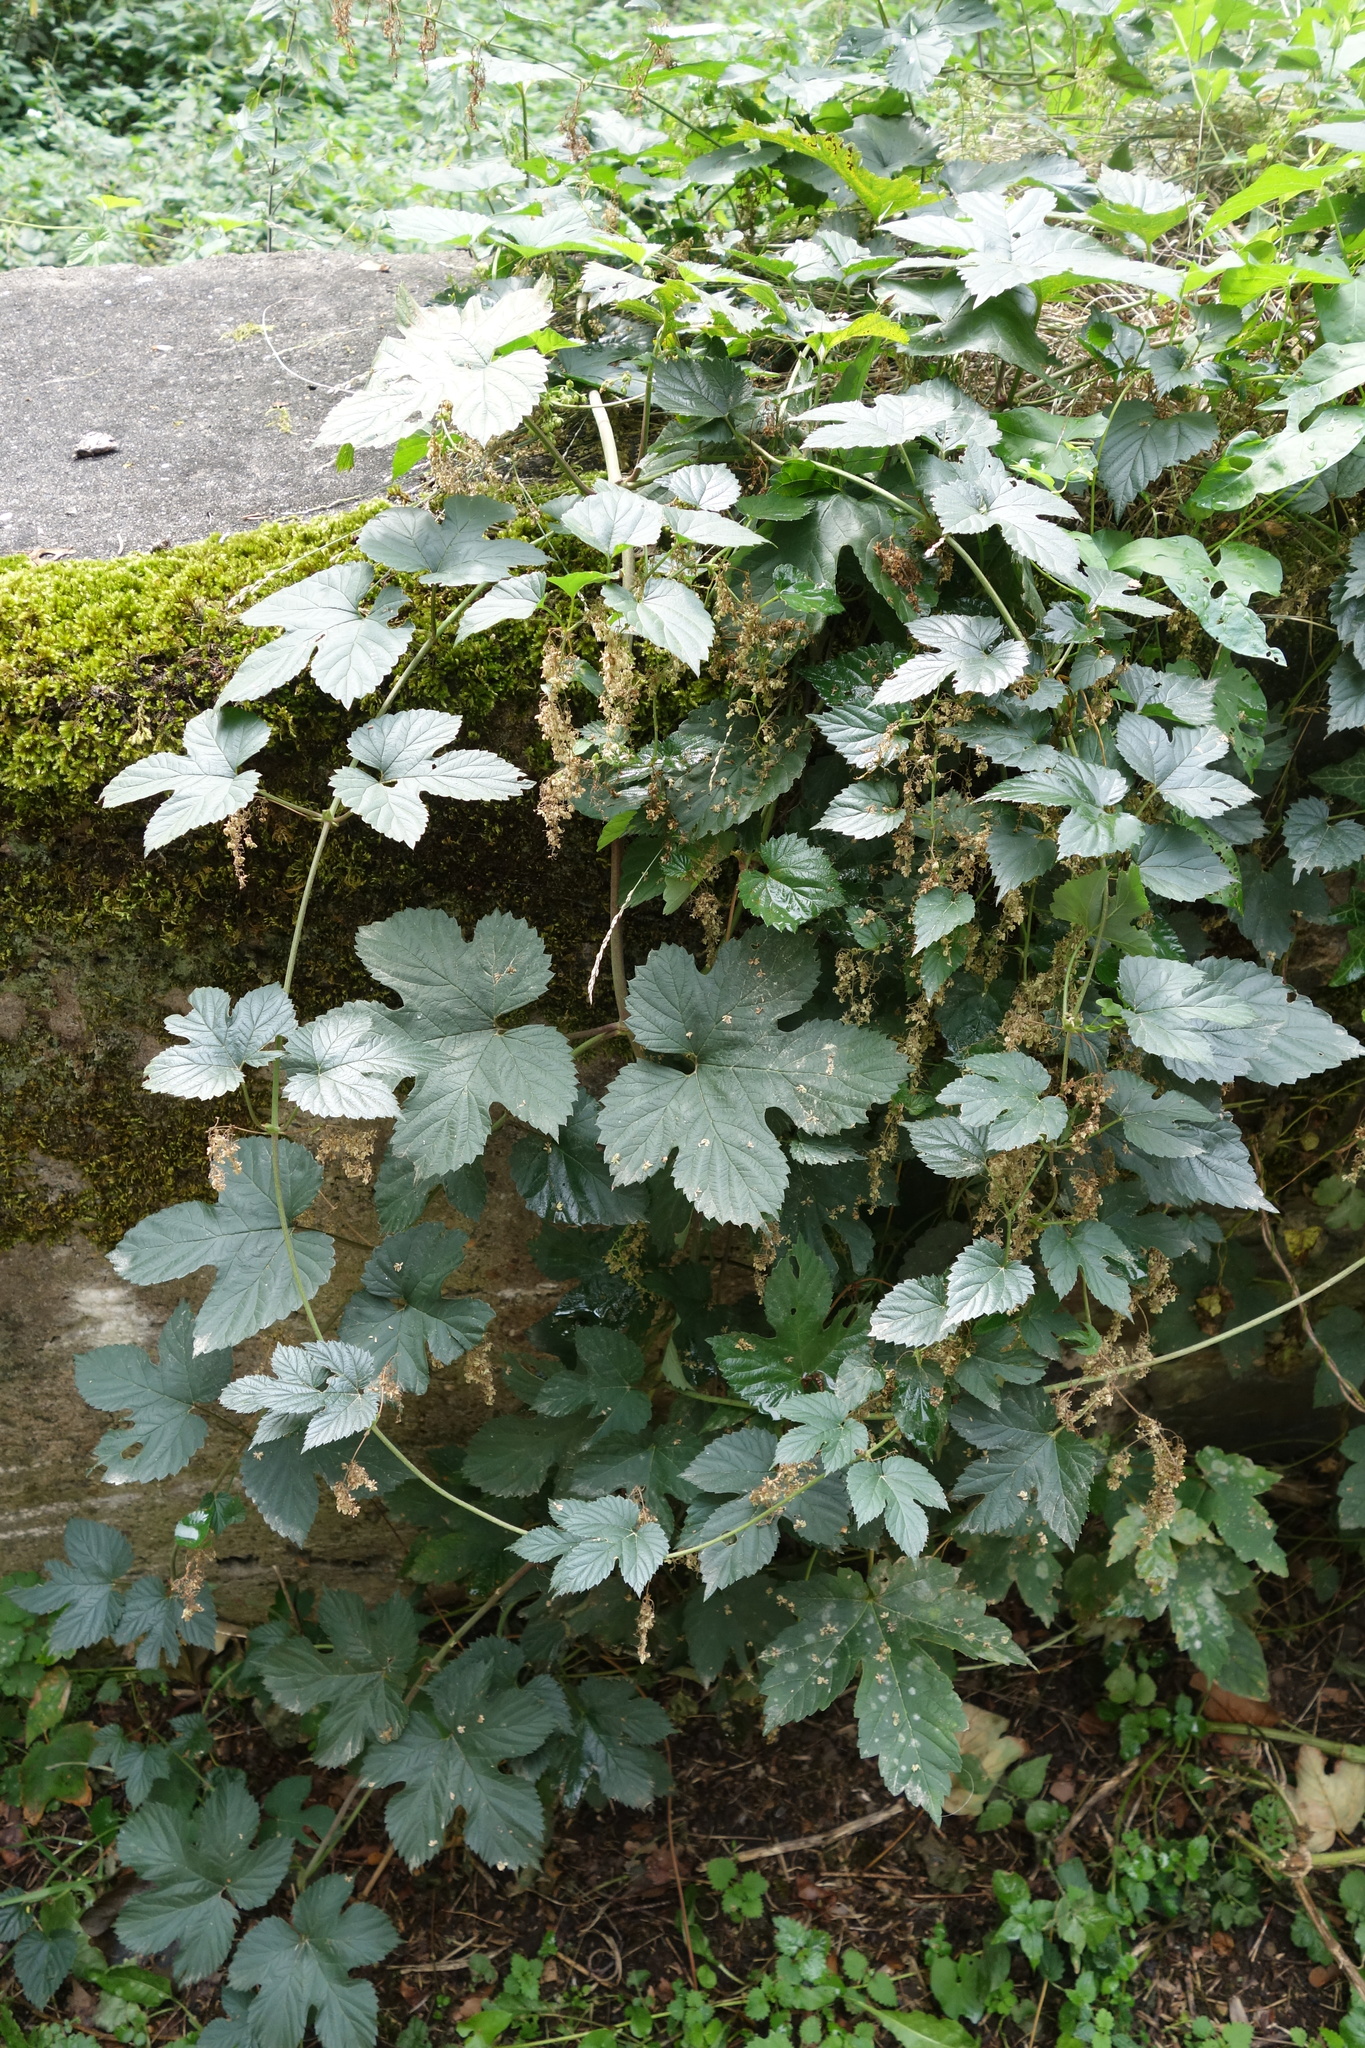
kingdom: Plantae
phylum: Tracheophyta
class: Magnoliopsida
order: Rosales
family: Cannabaceae
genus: Humulus
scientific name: Humulus lupulus
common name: Hop
